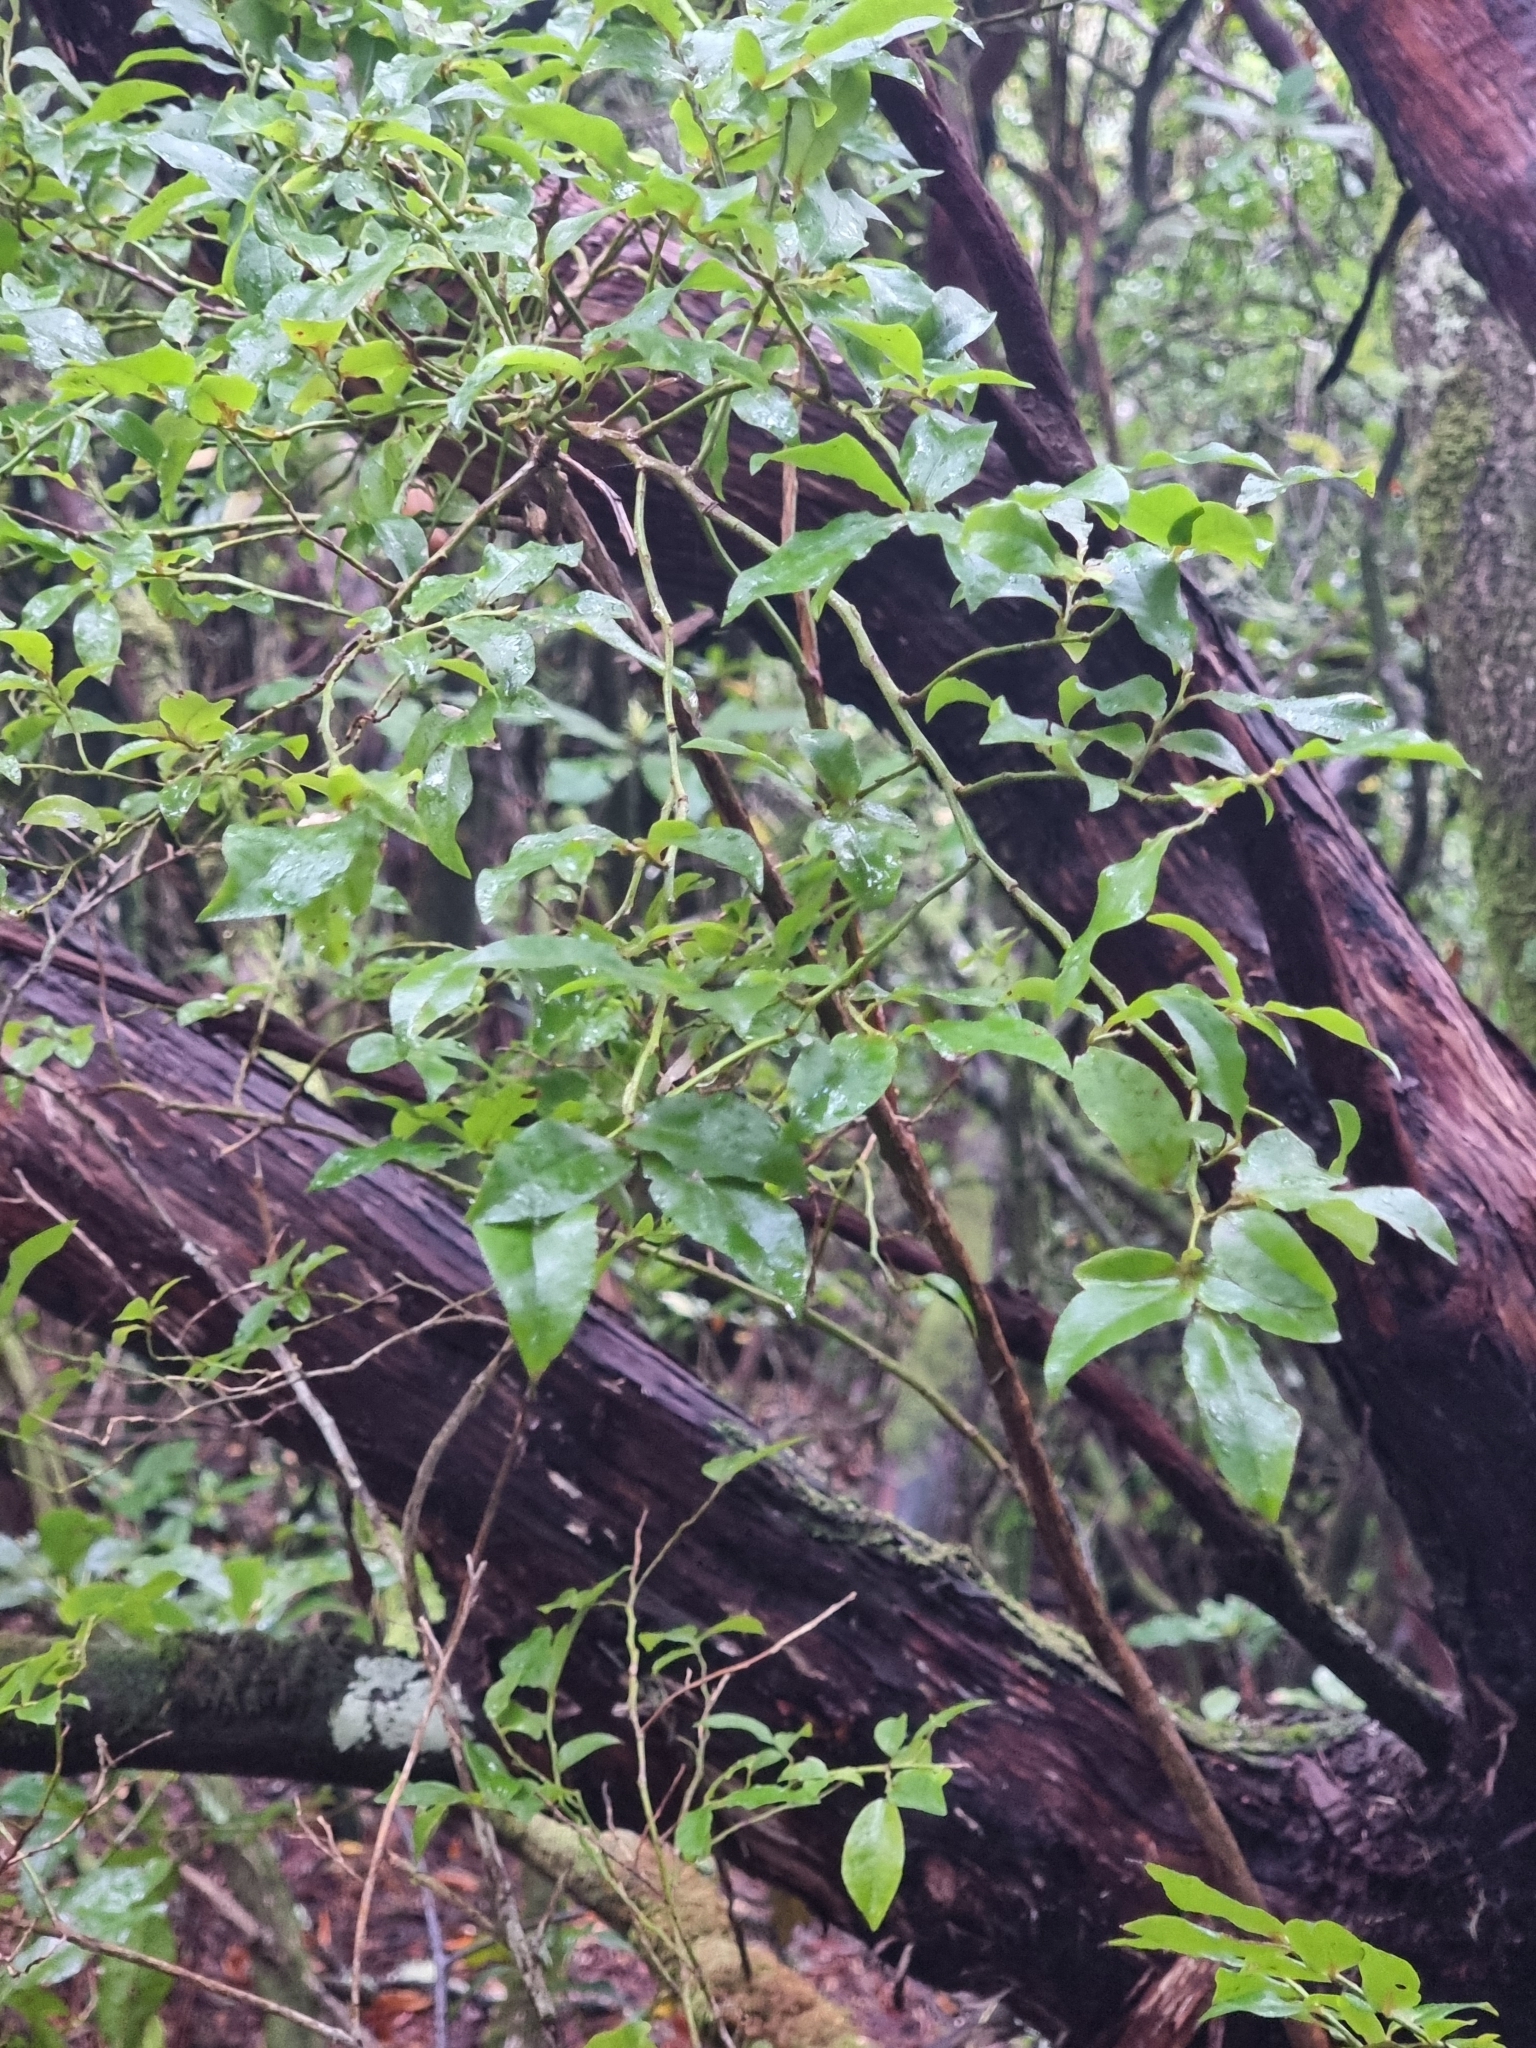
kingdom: Plantae
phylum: Tracheophyta
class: Magnoliopsida
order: Ericales
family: Ericaceae
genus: Vaccinium
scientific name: Vaccinium padifolium
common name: Madeiran blueberry
